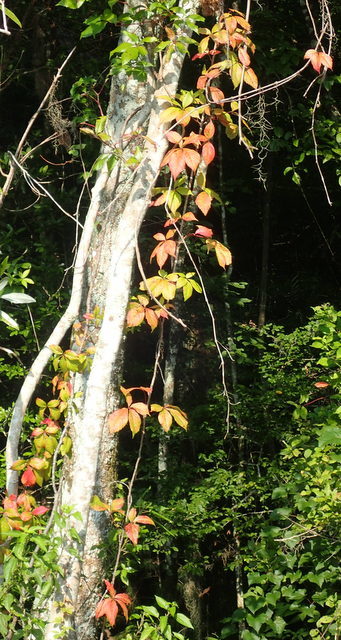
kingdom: Plantae
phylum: Tracheophyta
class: Magnoliopsida
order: Vitales
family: Vitaceae
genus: Parthenocissus
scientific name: Parthenocissus quinquefolia
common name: Virginia-creeper
